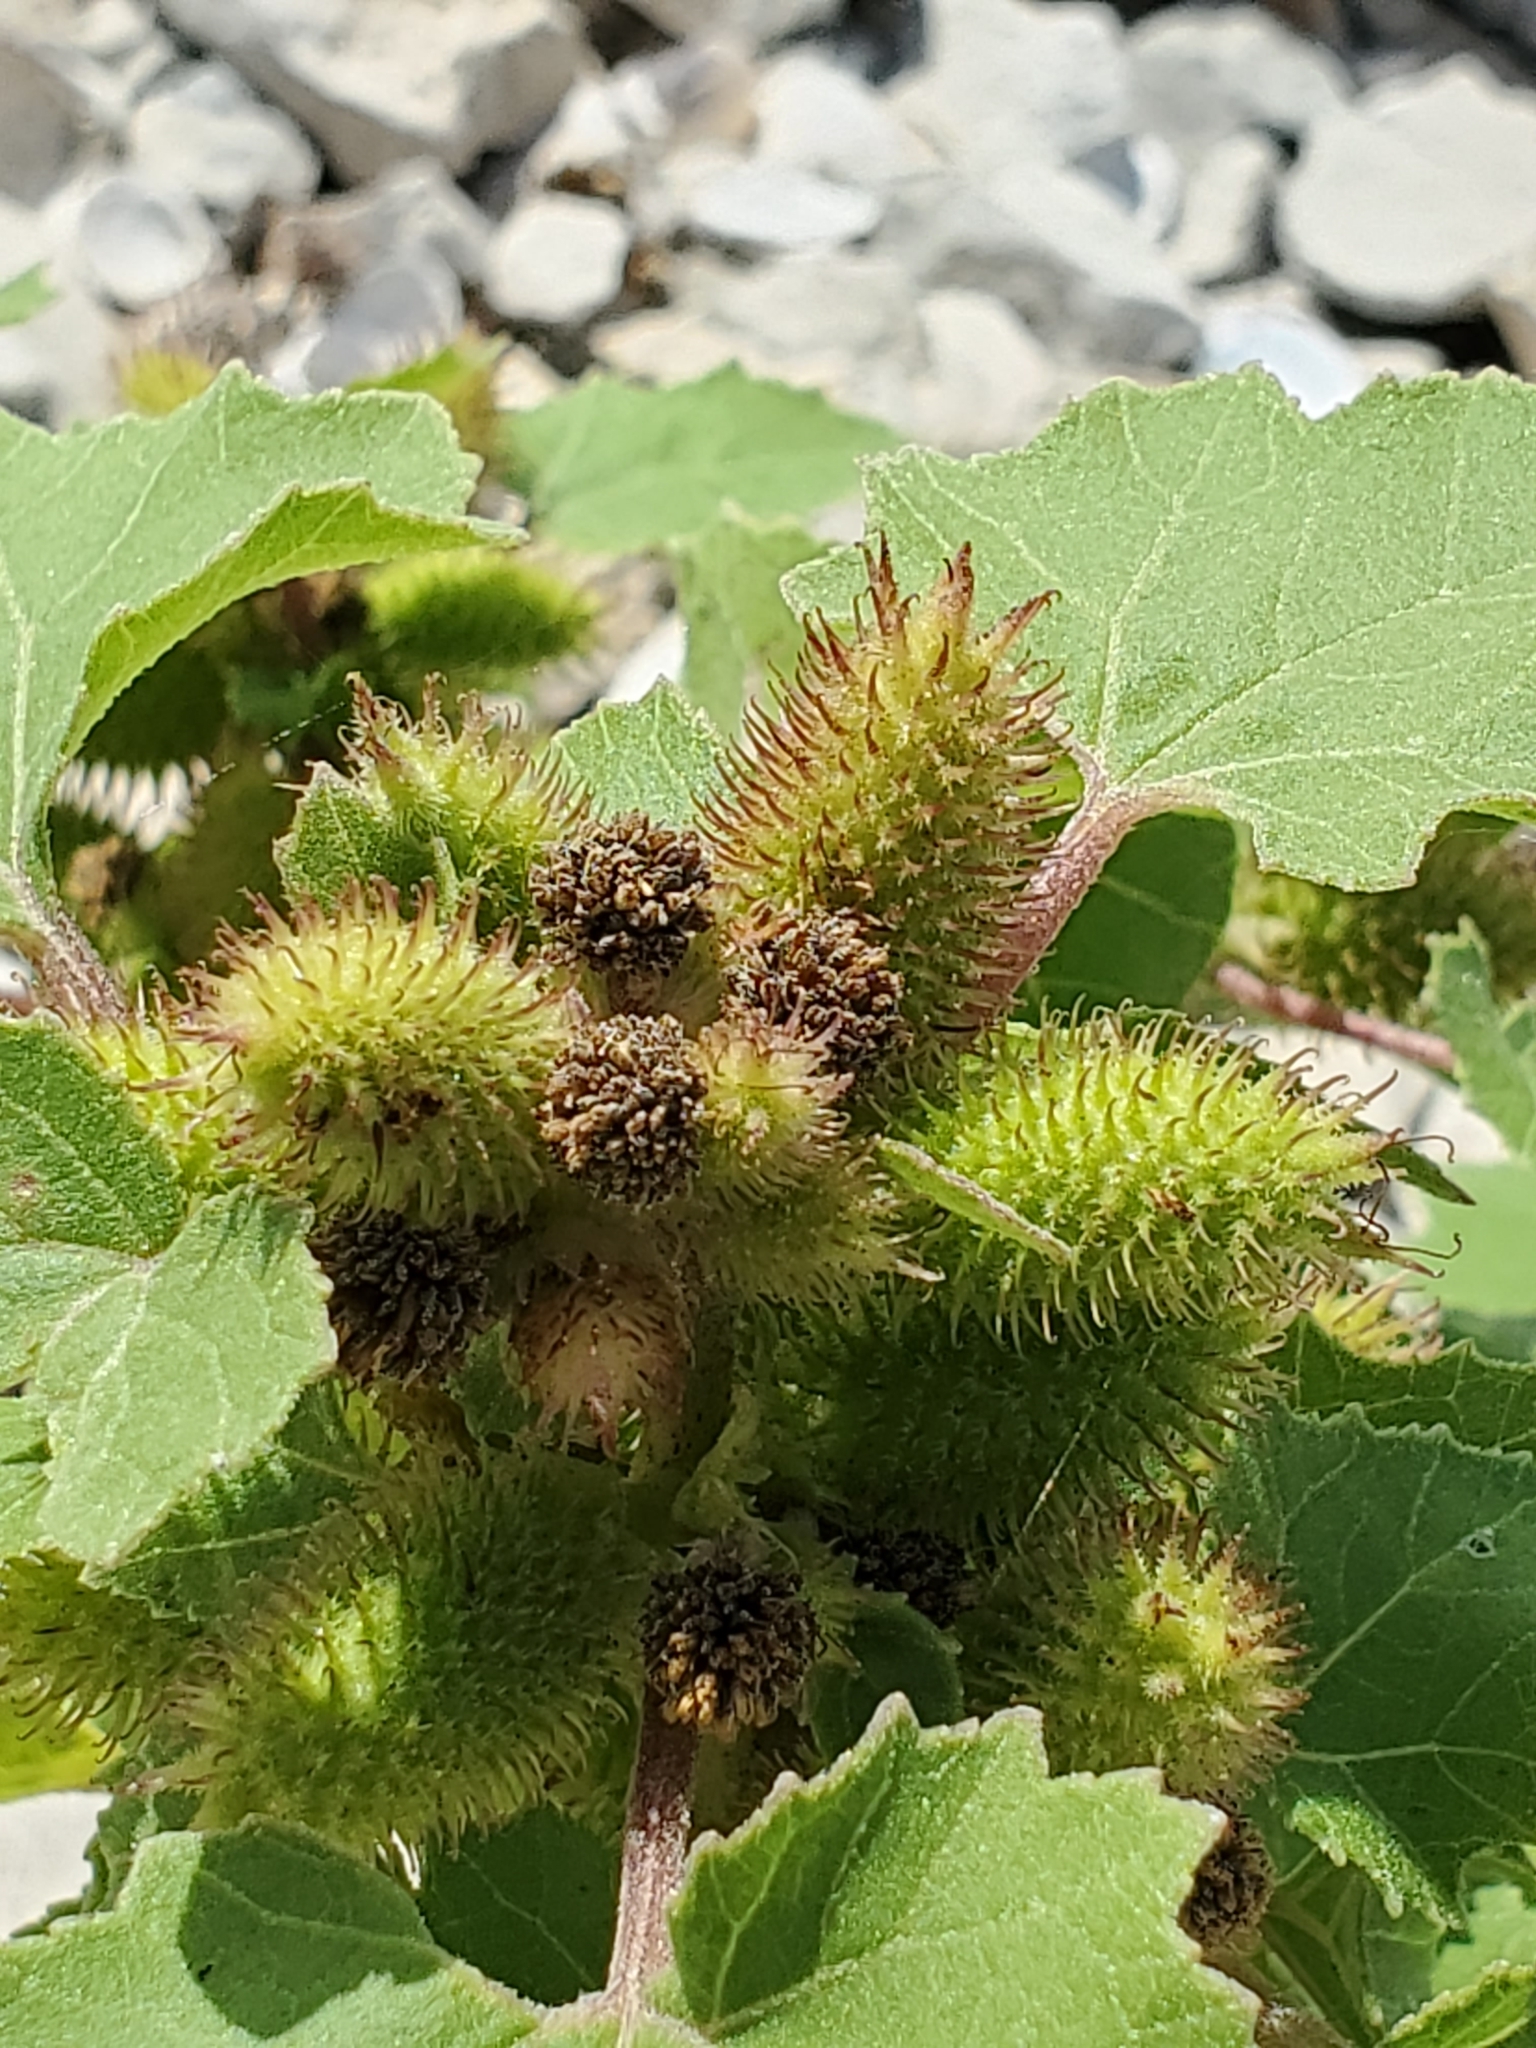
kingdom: Plantae
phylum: Tracheophyta
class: Magnoliopsida
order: Asterales
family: Asteraceae
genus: Xanthium
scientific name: Xanthium strumarium
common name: Rough cocklebur
